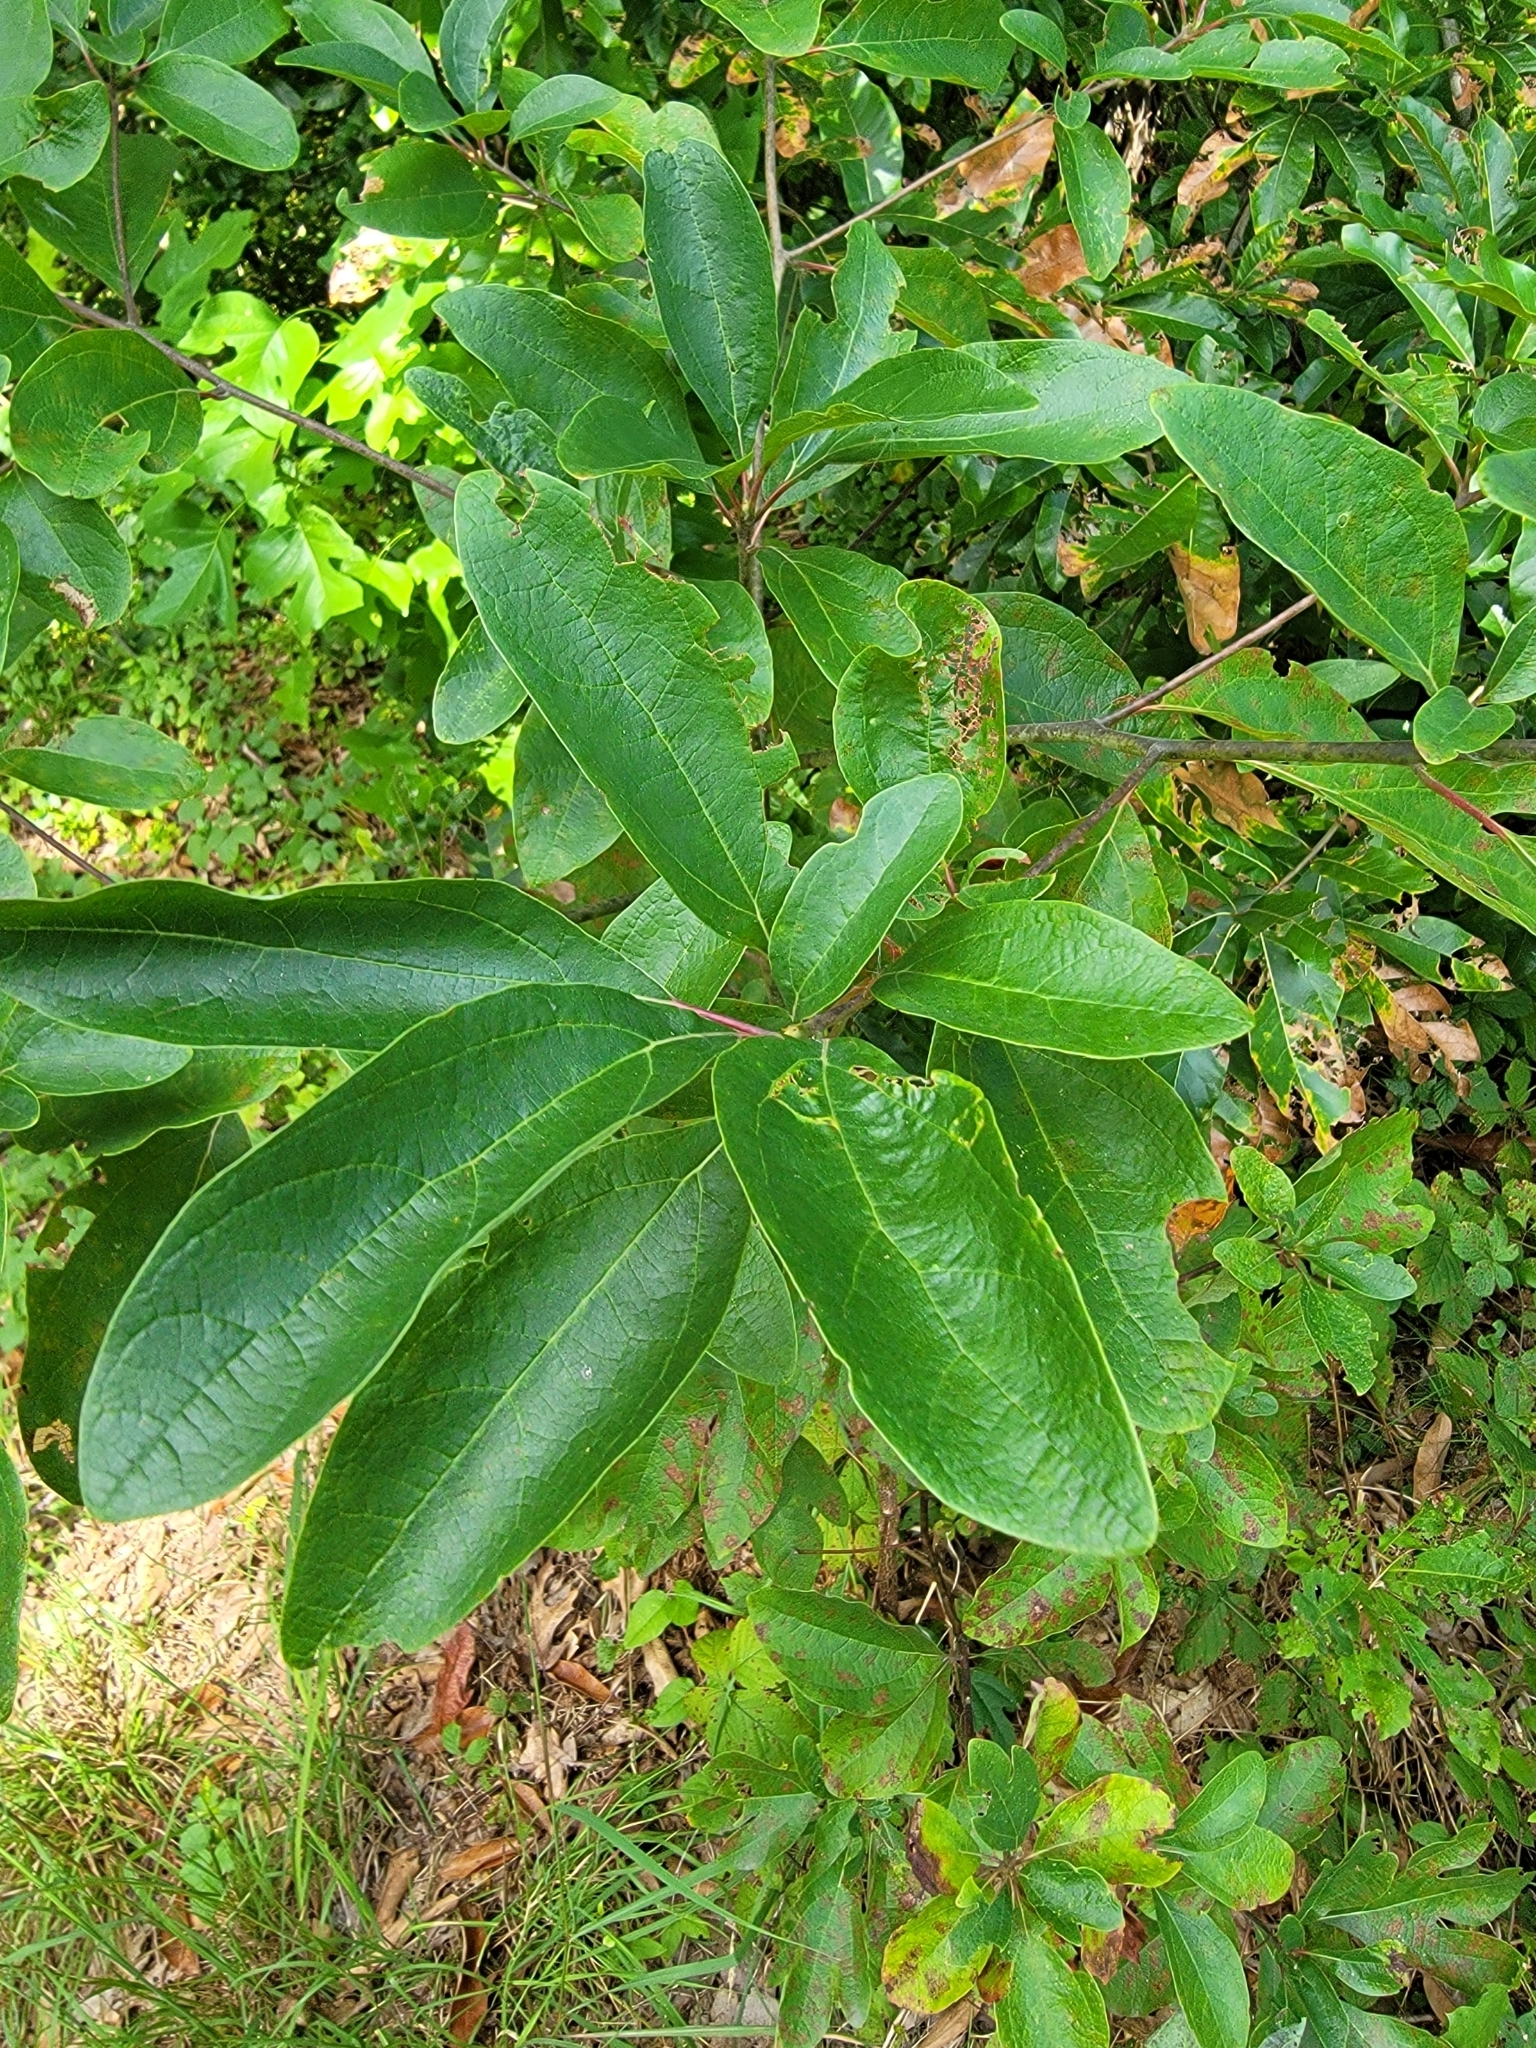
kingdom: Plantae
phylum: Tracheophyta
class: Magnoliopsida
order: Laurales
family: Lauraceae
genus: Sassafras
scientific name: Sassafras albidum
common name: Sassafras
